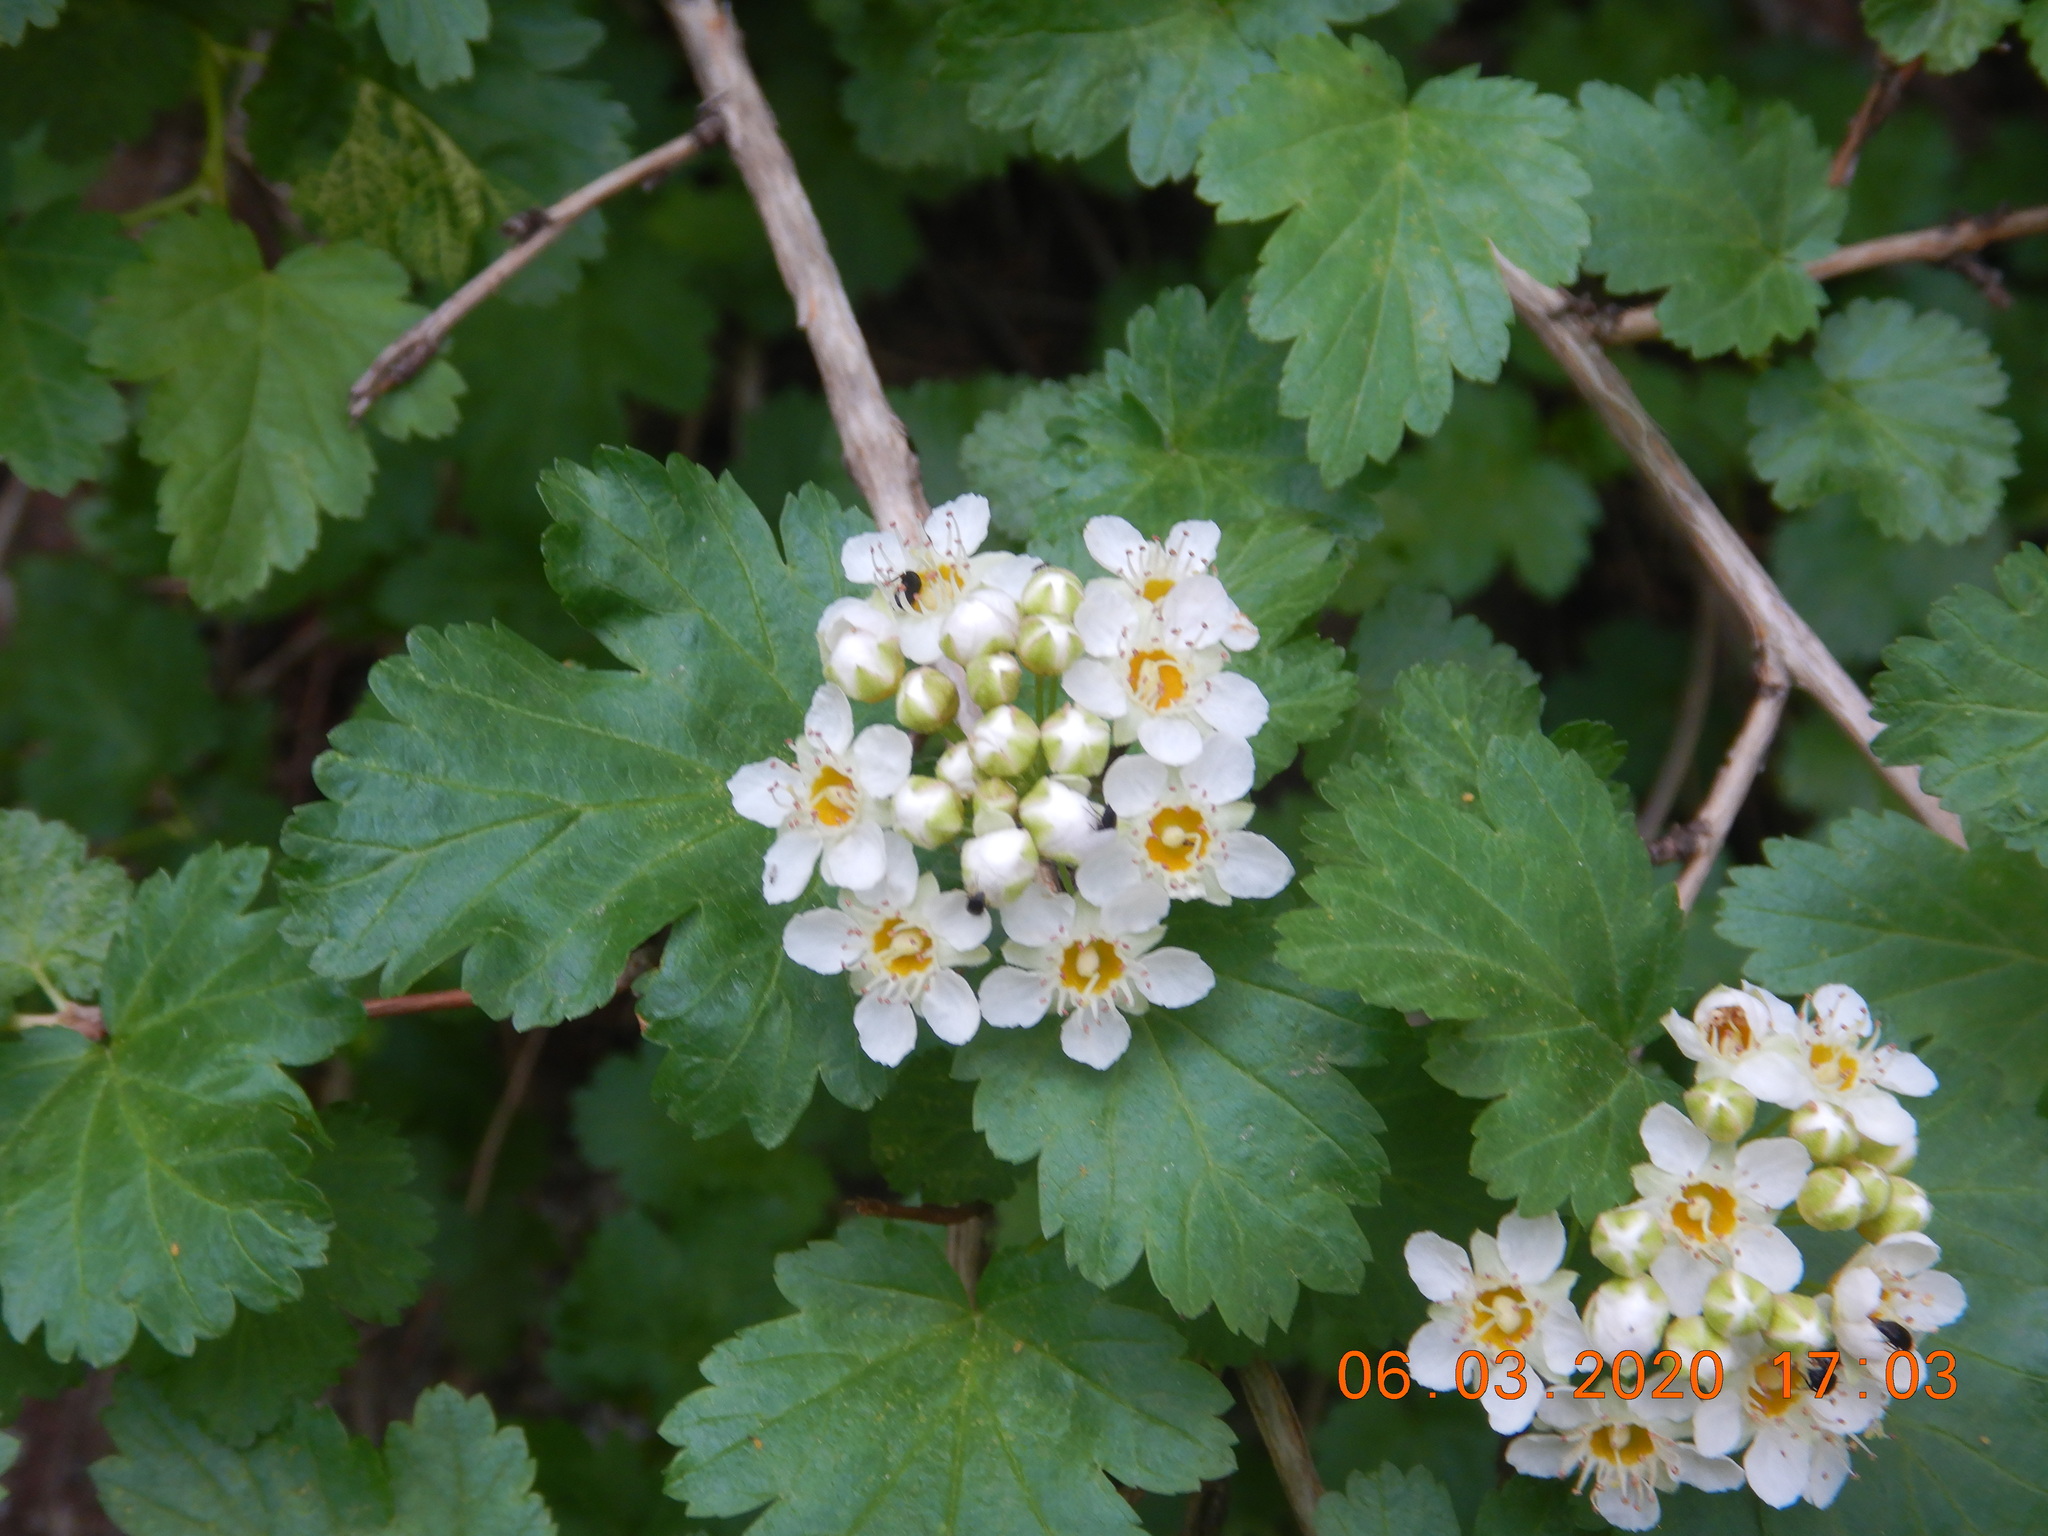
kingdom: Plantae
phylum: Tracheophyta
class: Magnoliopsida
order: Rosales
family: Rosaceae
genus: Physocarpus
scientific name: Physocarpus monogynus
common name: Mountain ninebark
